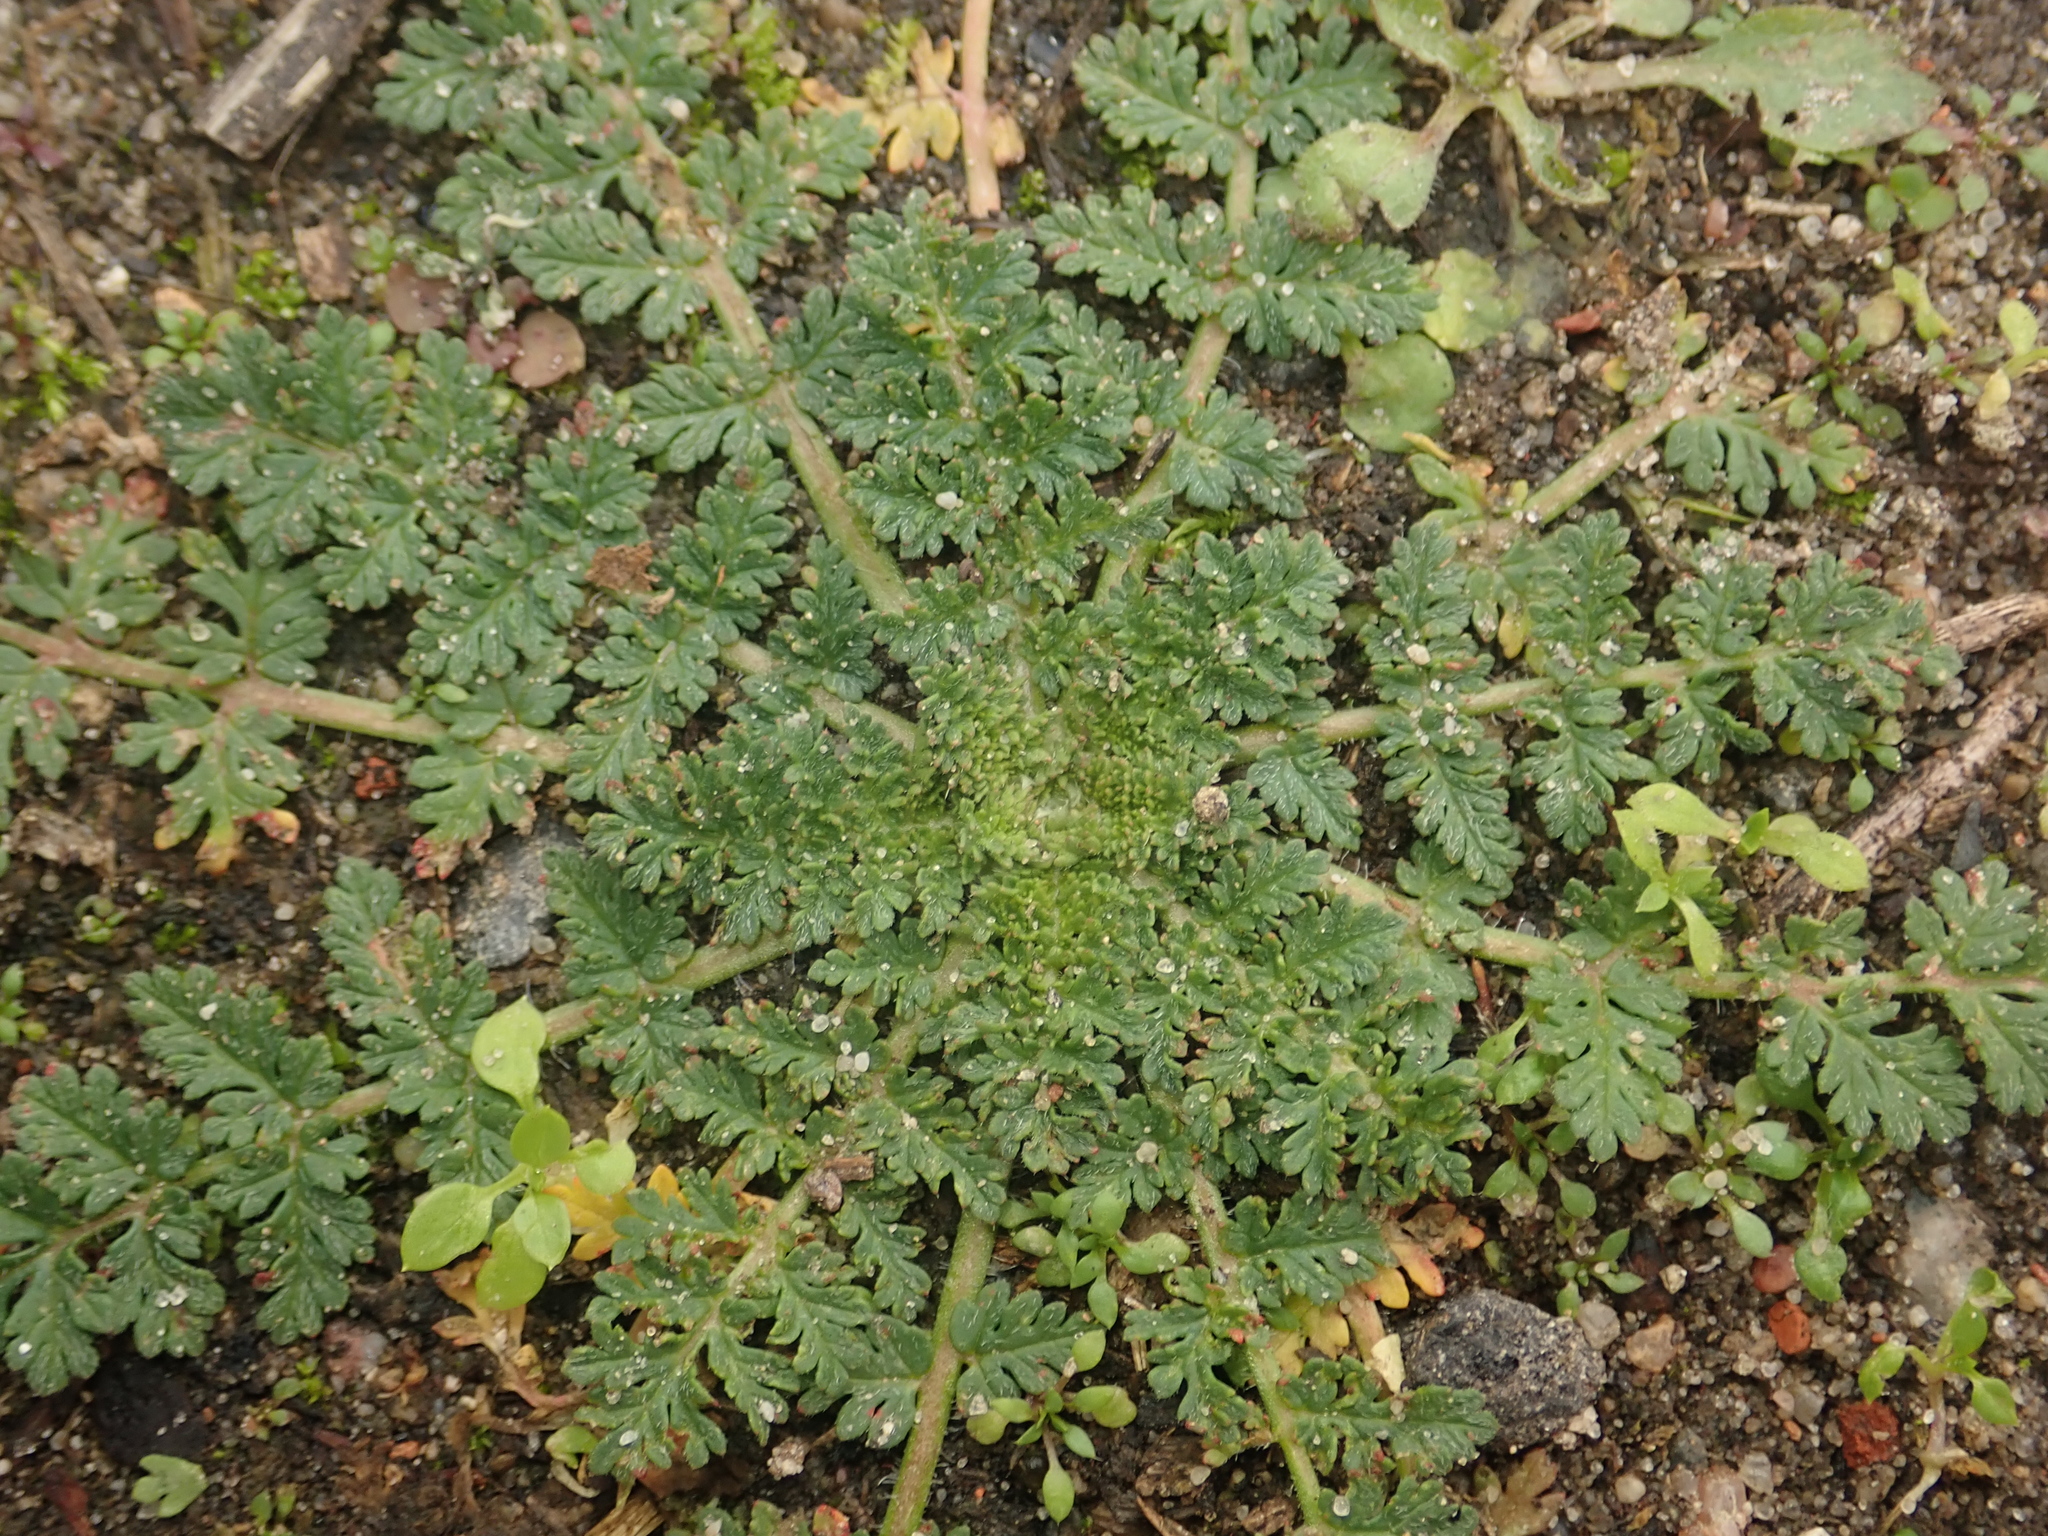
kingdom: Plantae
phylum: Tracheophyta
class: Magnoliopsida
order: Geraniales
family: Geraniaceae
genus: Erodium
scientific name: Erodium cicutarium
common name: Common stork's-bill
